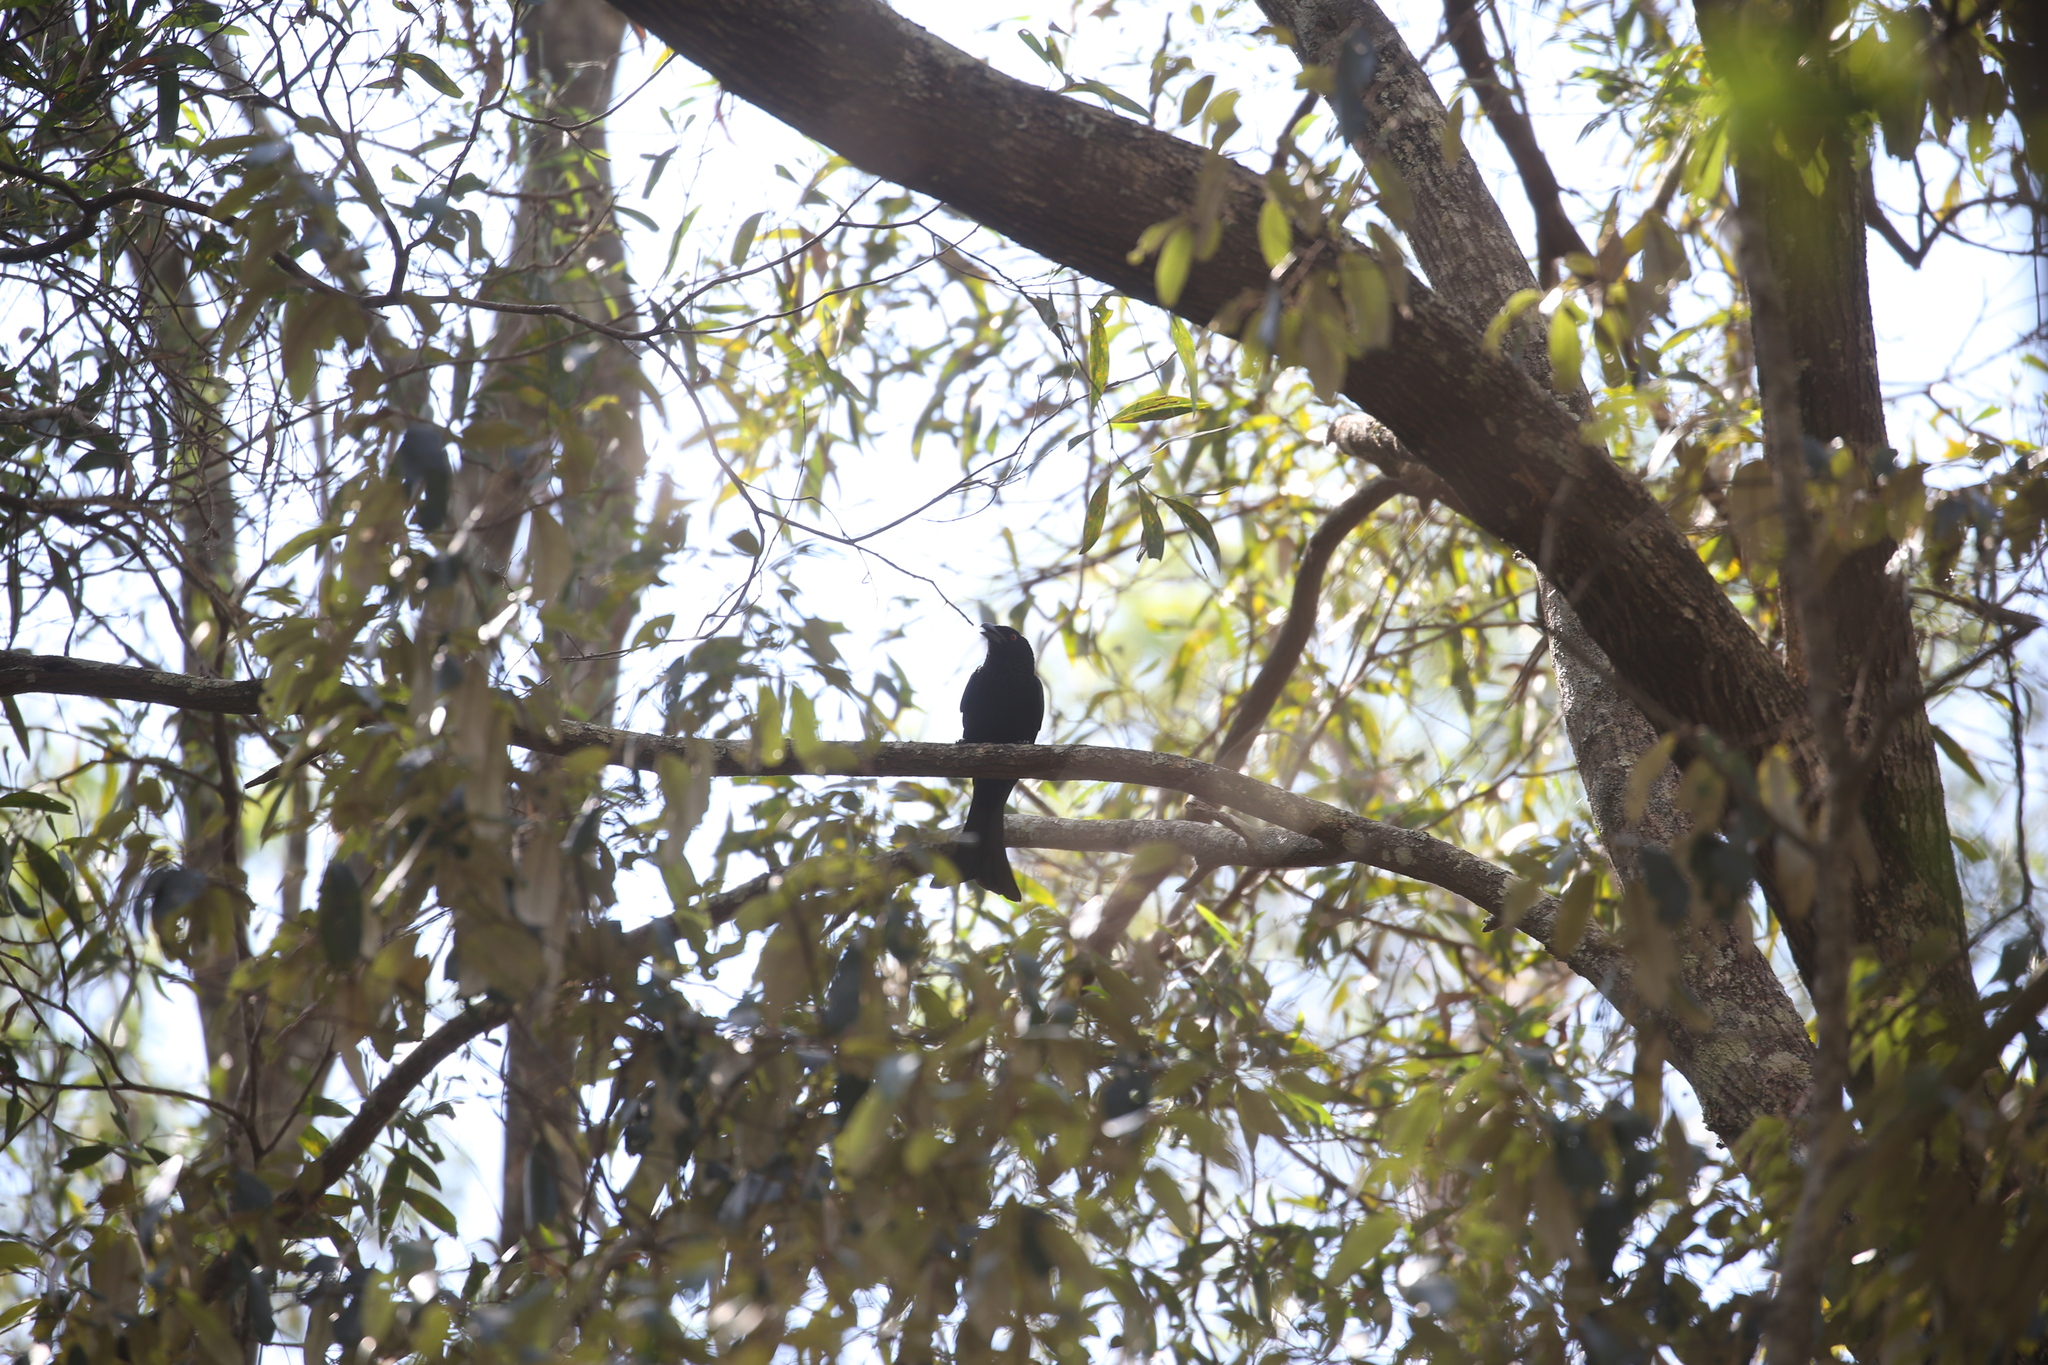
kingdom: Animalia
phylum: Chordata
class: Aves
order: Passeriformes
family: Dicruridae
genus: Dicrurus
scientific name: Dicrurus bracteatus
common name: Spangled drongo
